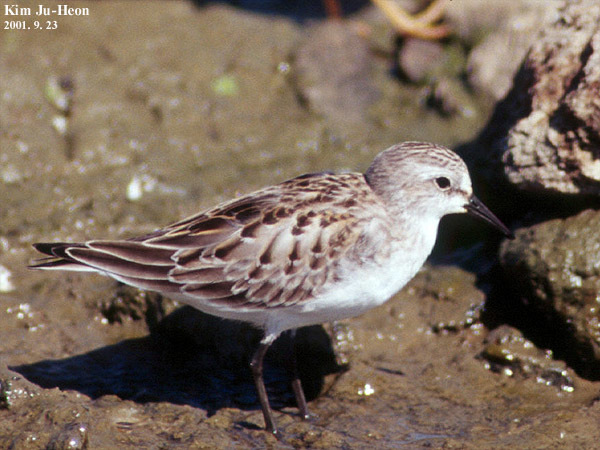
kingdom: Animalia
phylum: Chordata
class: Aves
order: Charadriiformes
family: Scolopacidae
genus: Calidris
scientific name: Calidris ruficollis
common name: Red-necked stint
